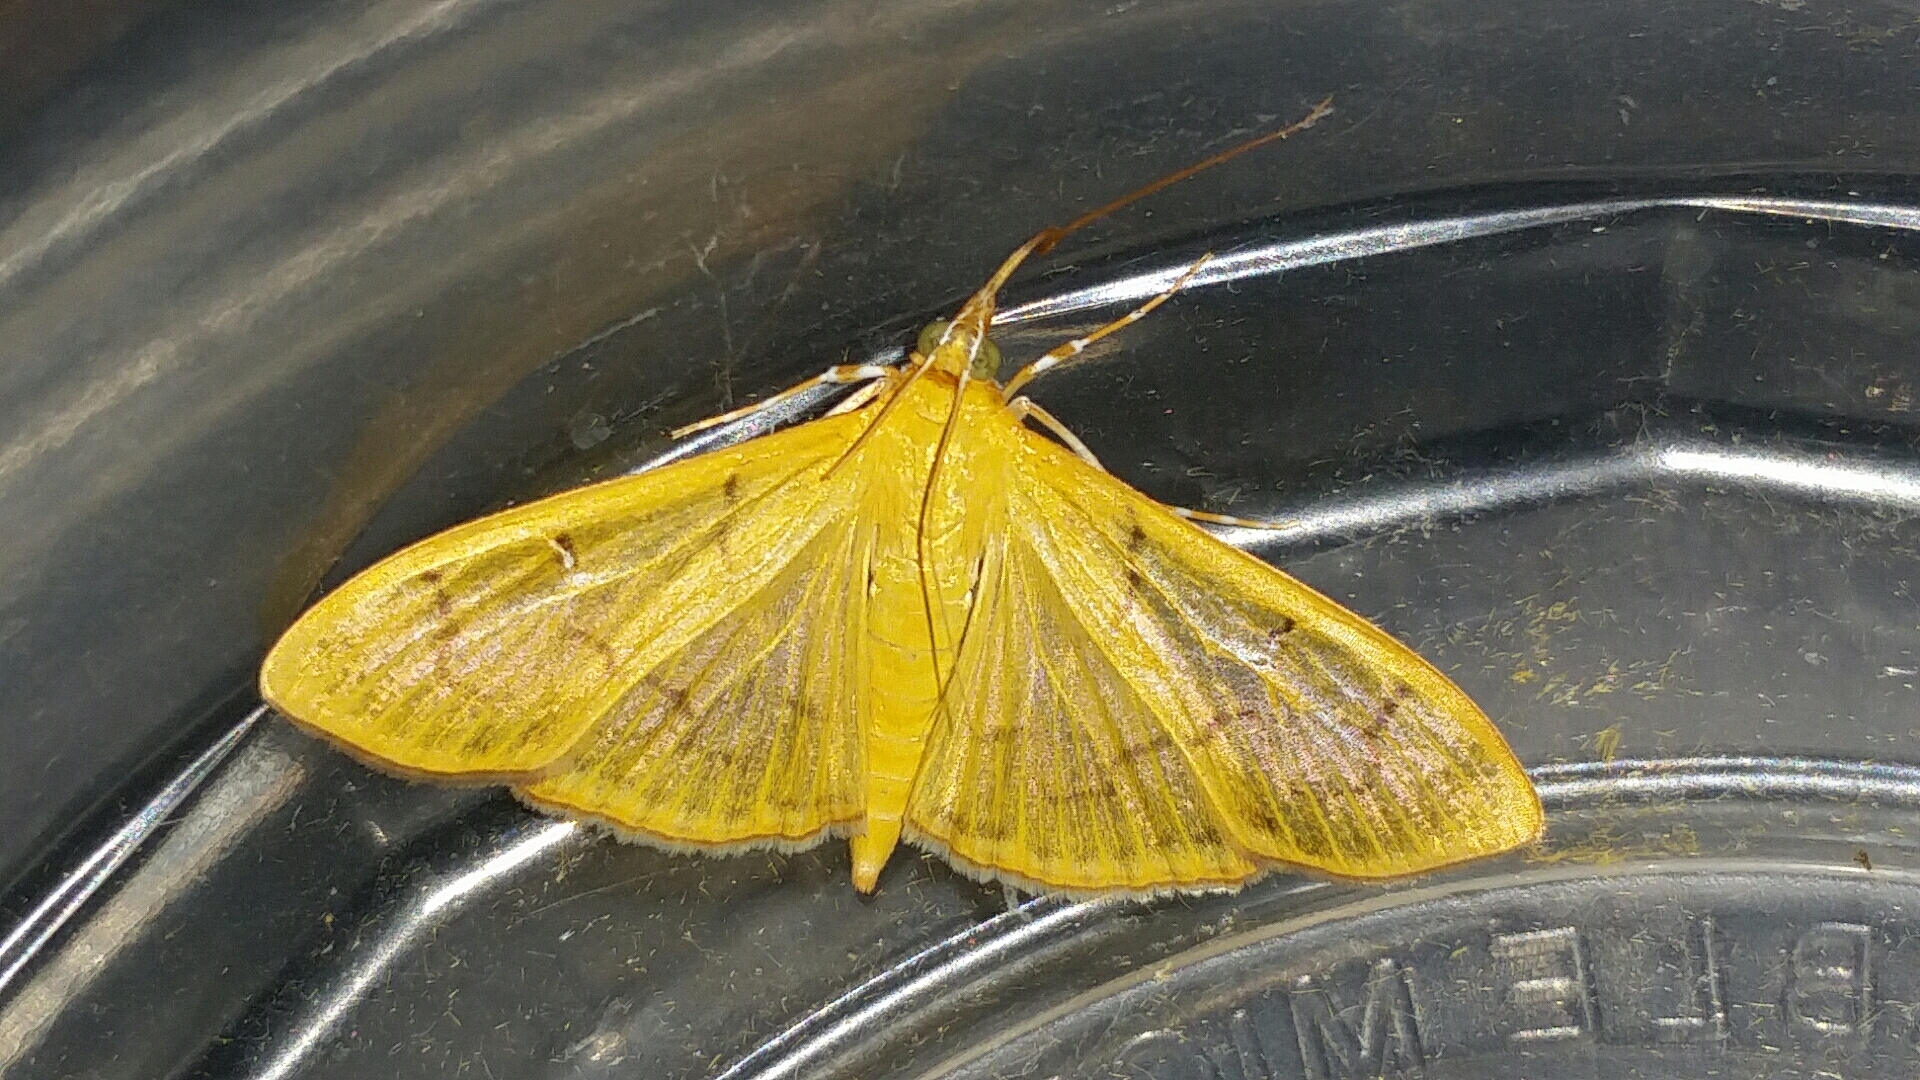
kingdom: Animalia
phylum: Arthropoda
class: Insecta
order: Lepidoptera
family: Crambidae
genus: Condylorrhiza
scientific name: Condylorrhiza vestigialis
